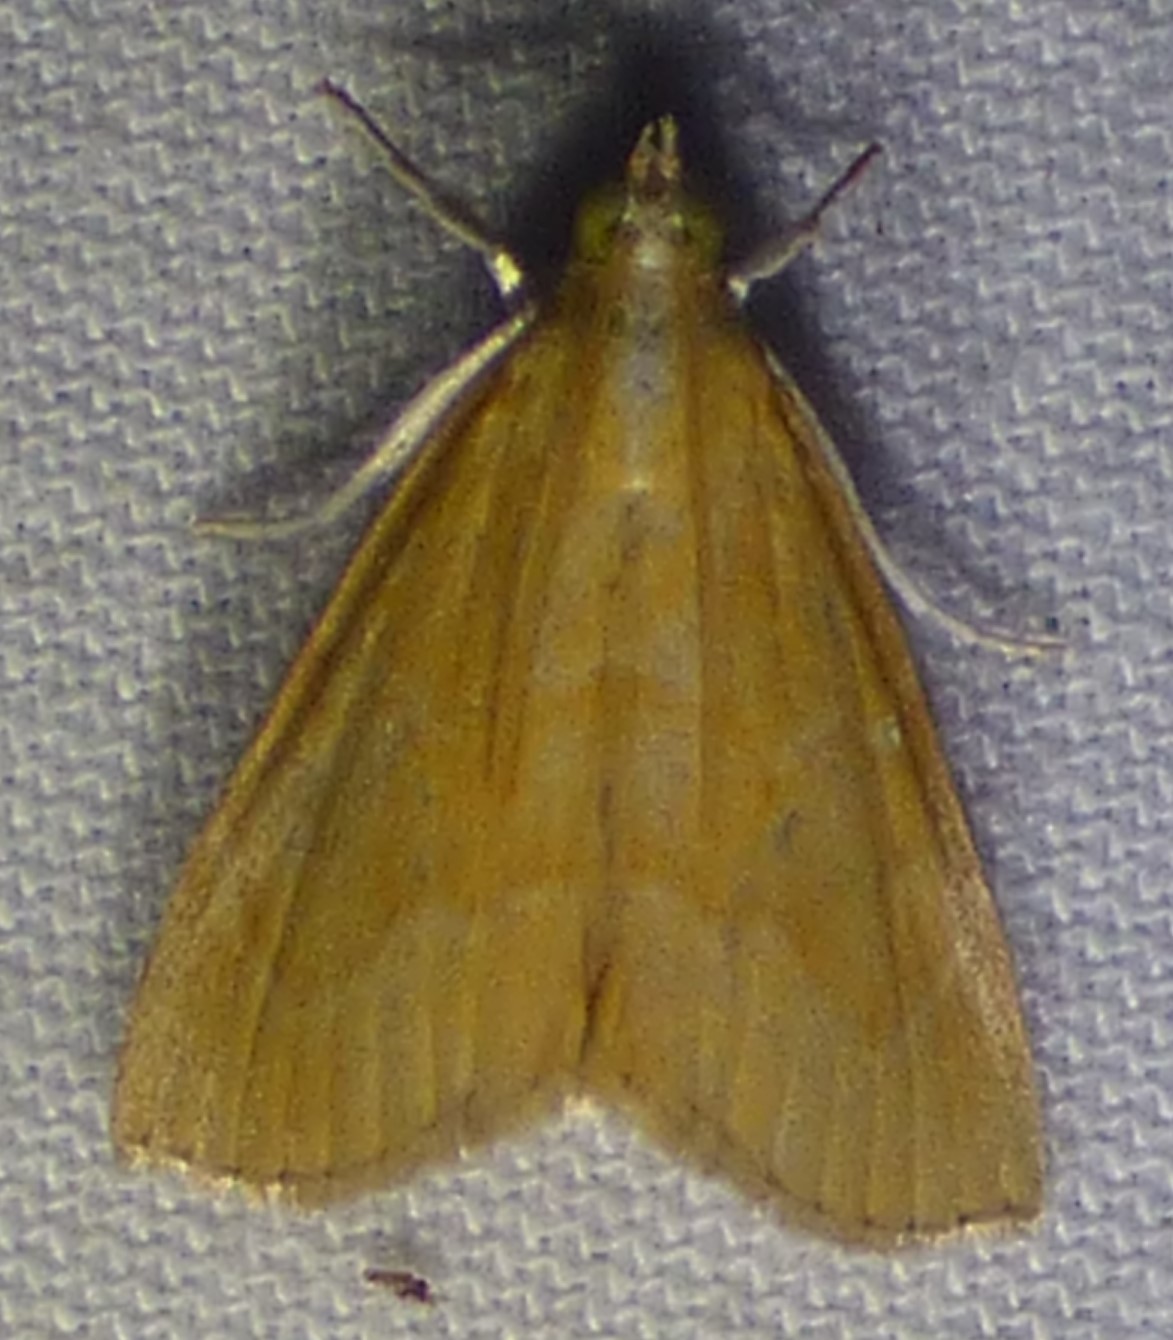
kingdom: Animalia
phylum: Arthropoda
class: Insecta
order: Lepidoptera
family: Crambidae
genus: Aethiophysa
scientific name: Aethiophysa
